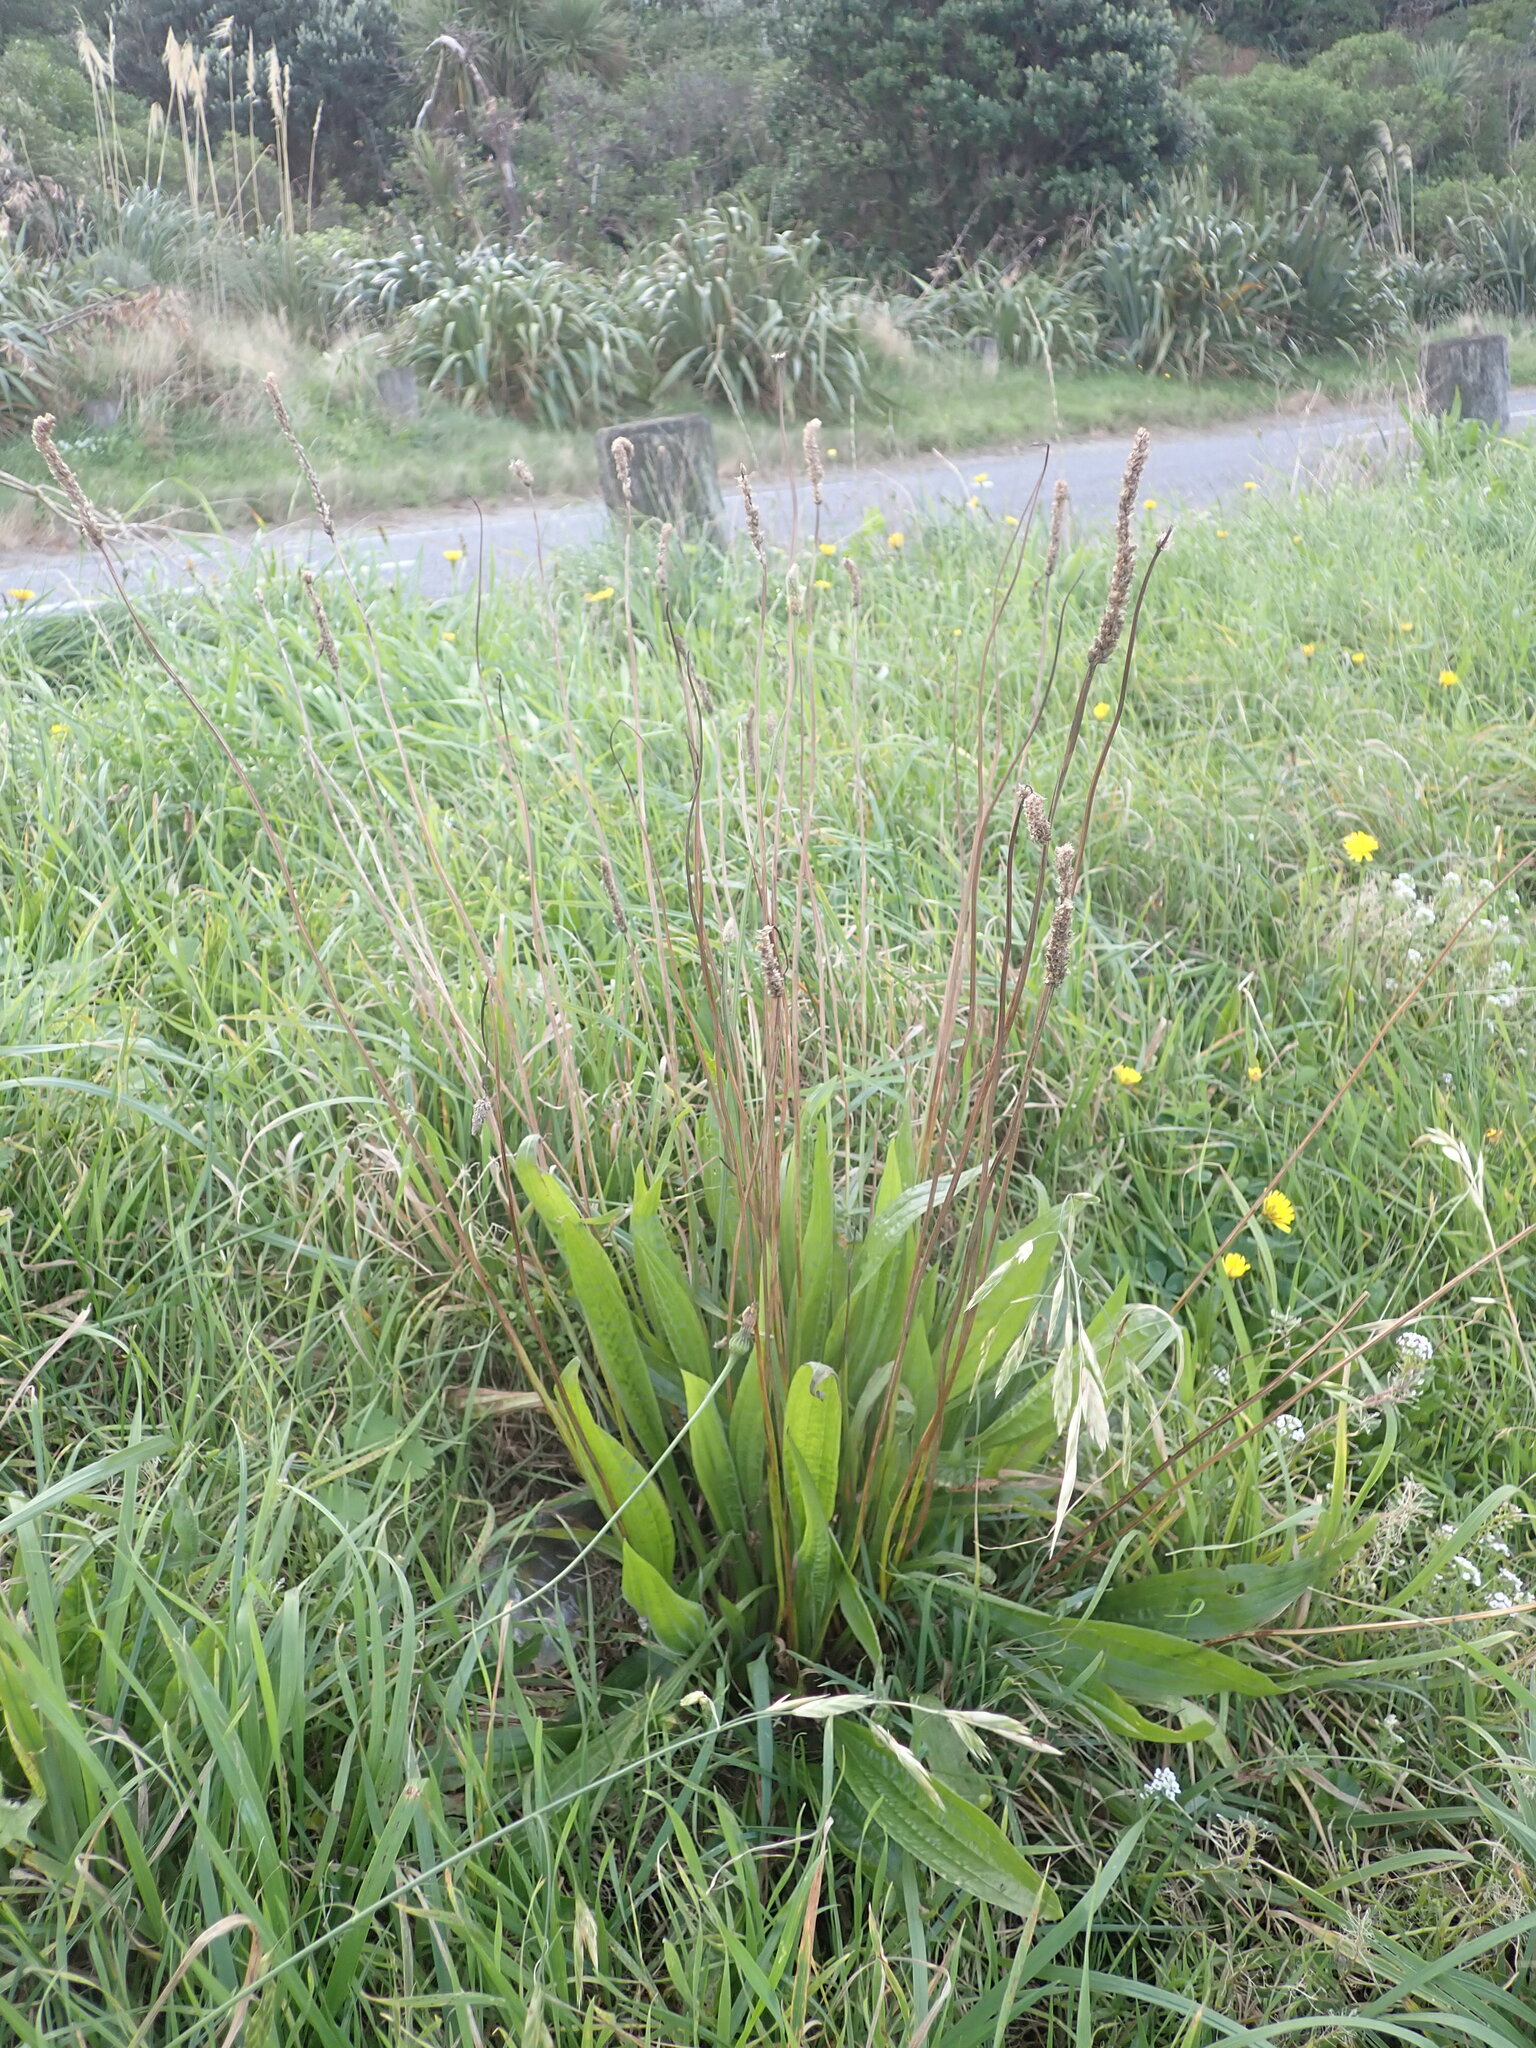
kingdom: Plantae
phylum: Tracheophyta
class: Magnoliopsida
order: Lamiales
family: Plantaginaceae
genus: Plantago
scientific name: Plantago lanceolata
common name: Ribwort plantain
